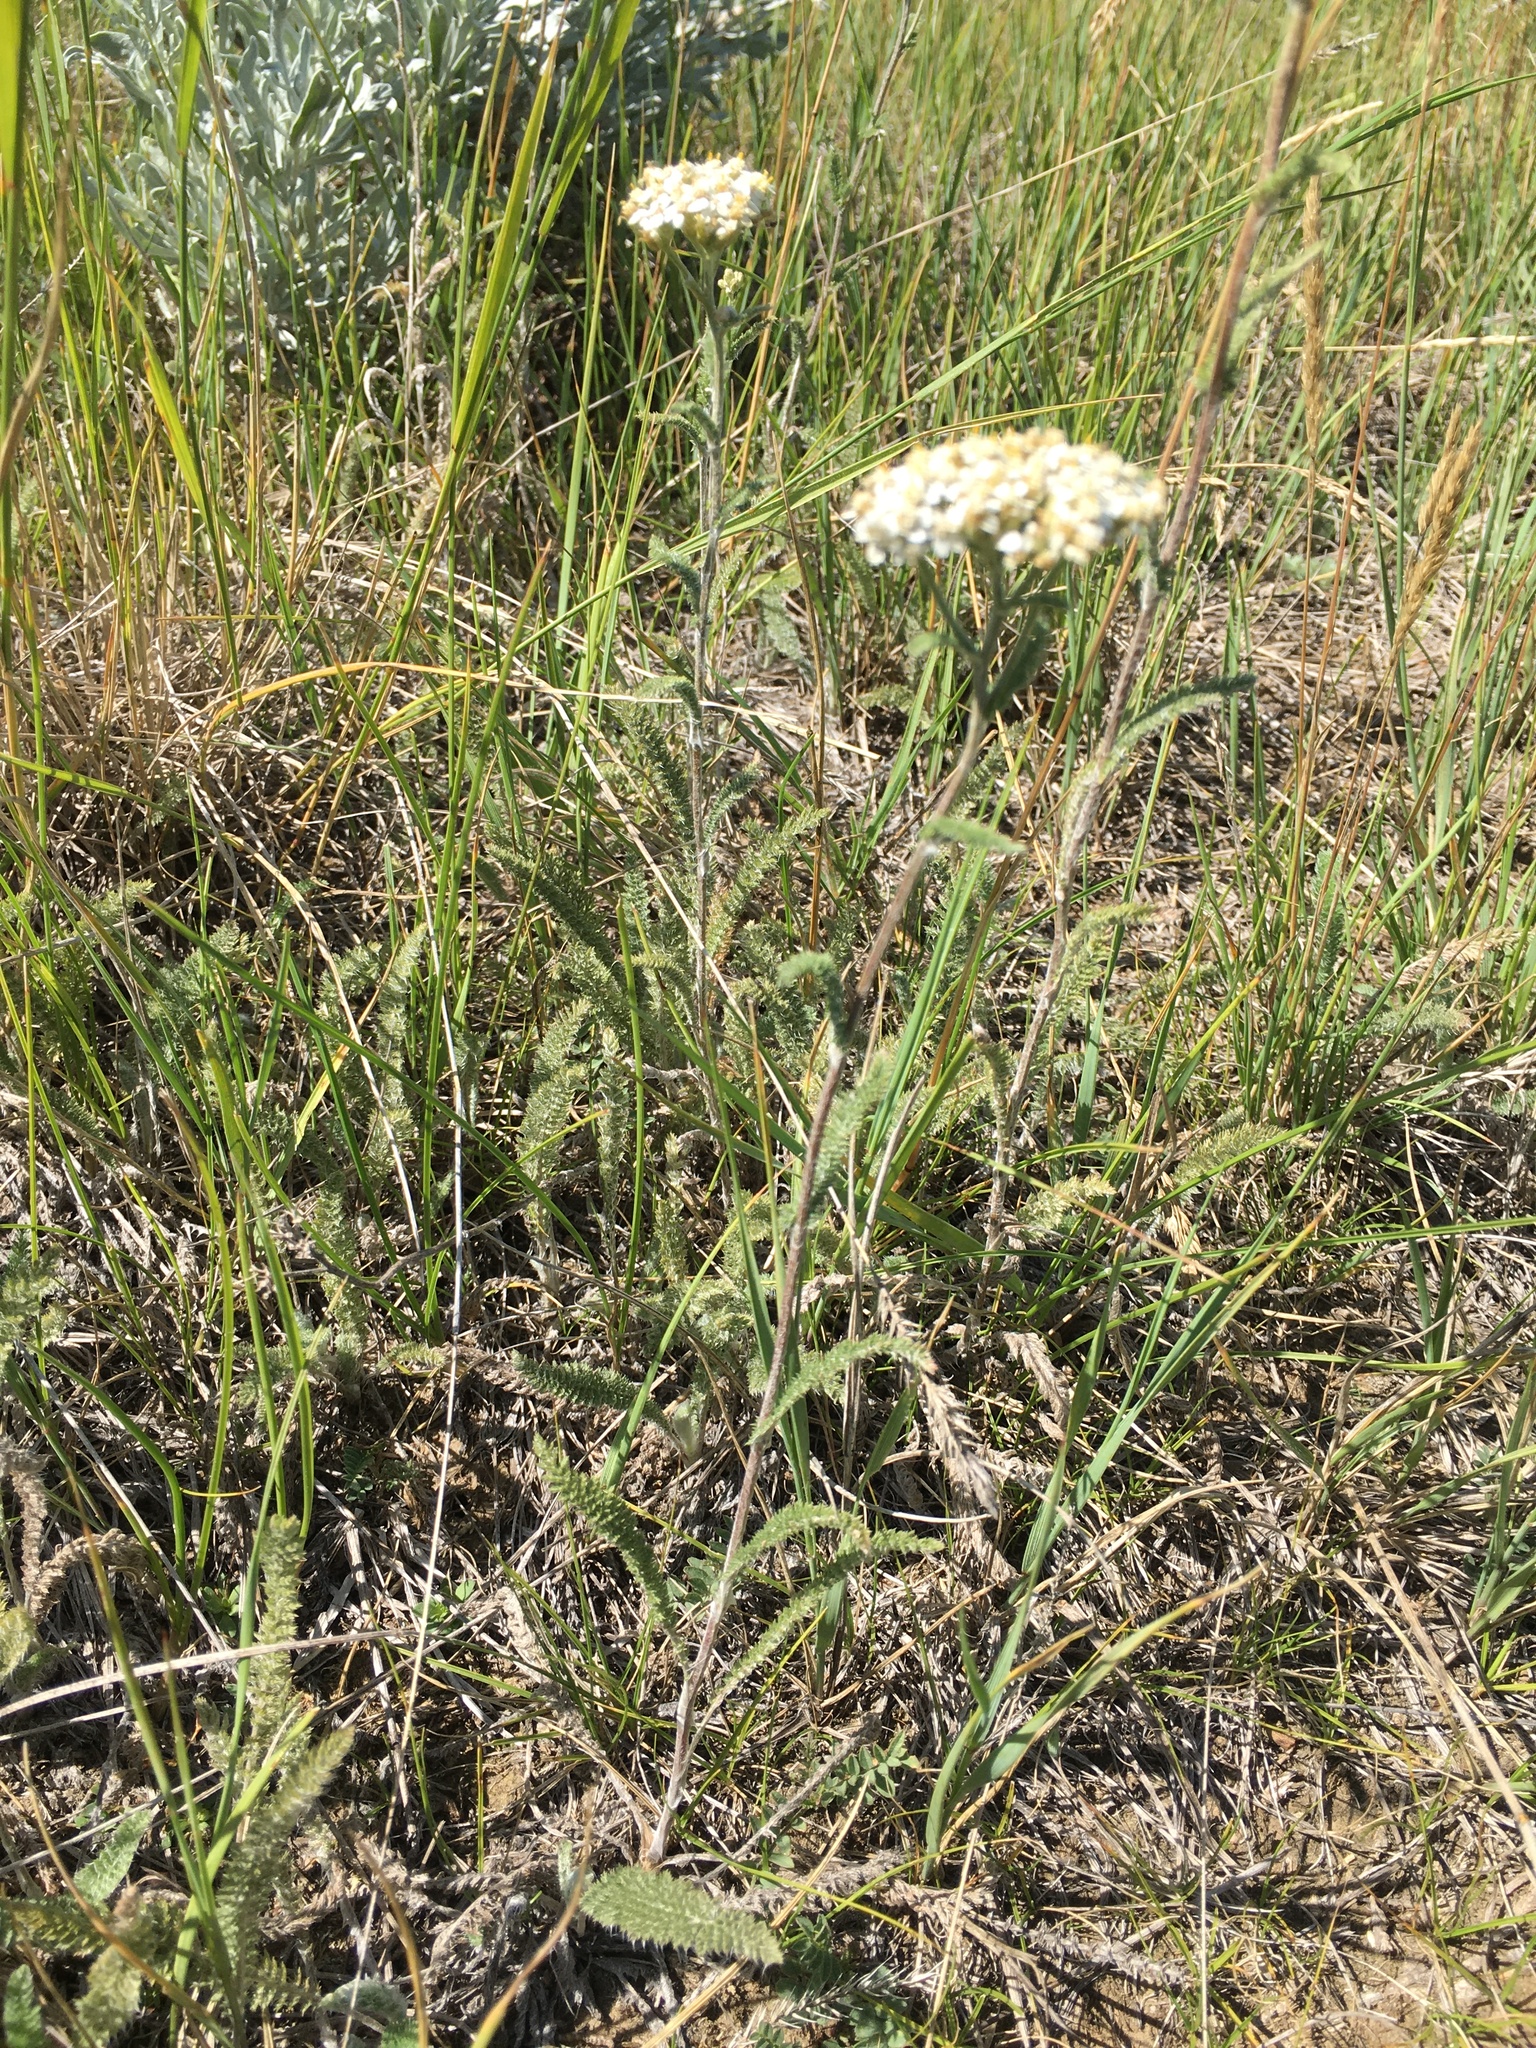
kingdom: Plantae
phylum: Tracheophyta
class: Magnoliopsida
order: Asterales
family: Asteraceae
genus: Achillea
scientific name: Achillea millefolium
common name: Yarrow
